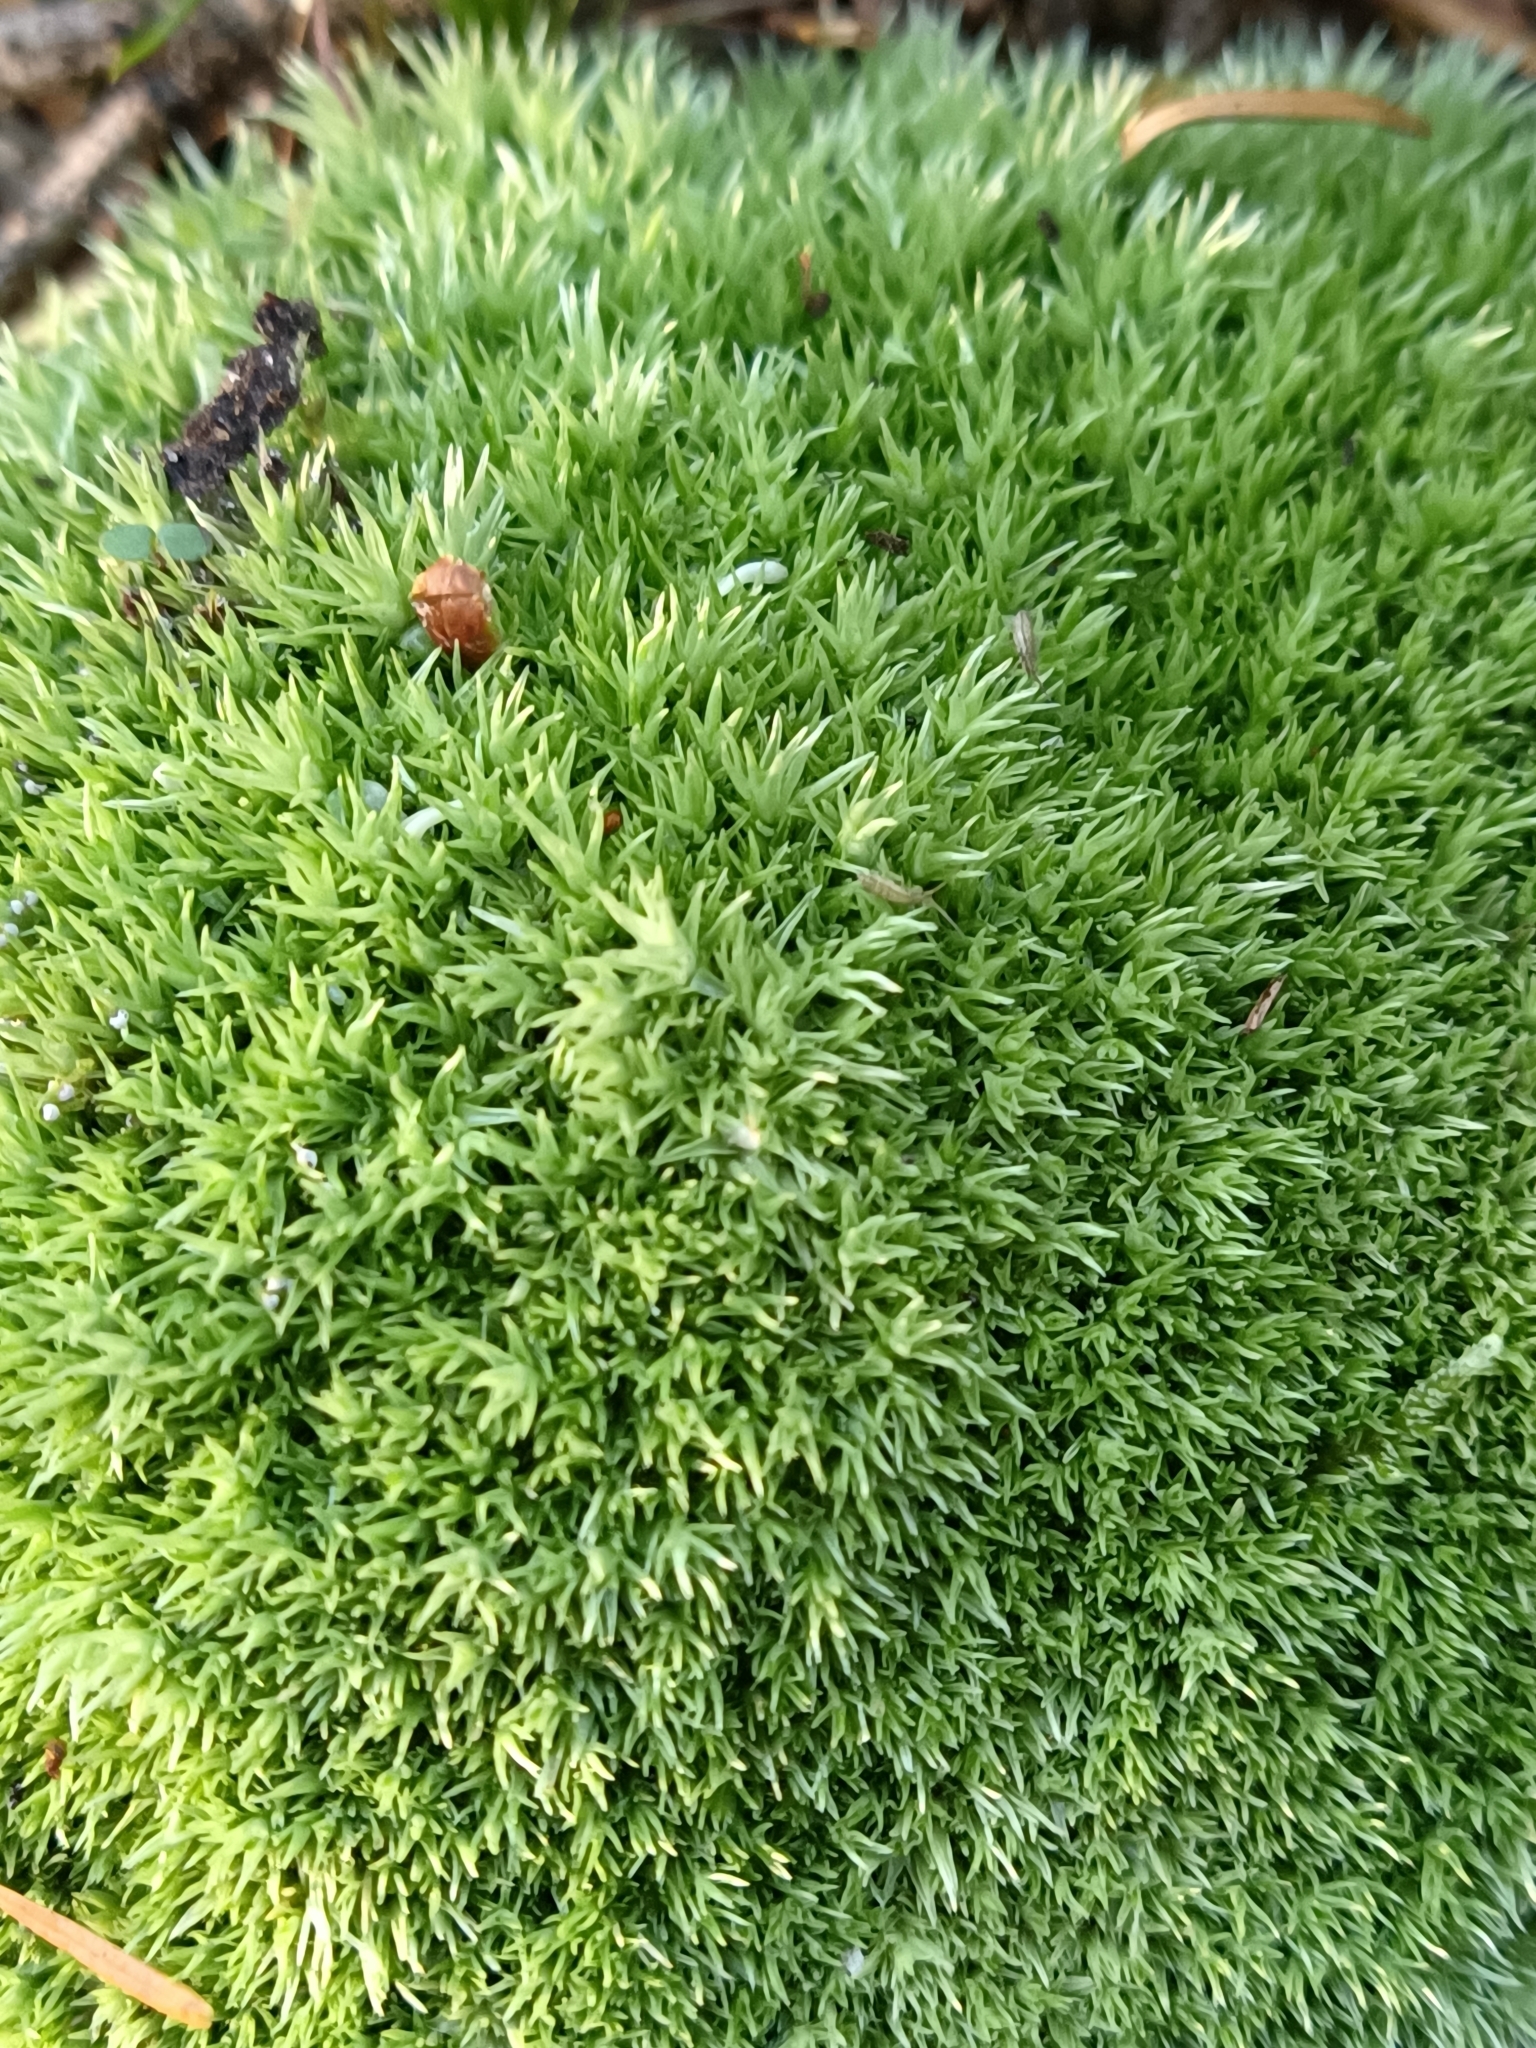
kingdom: Plantae
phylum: Bryophyta
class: Bryopsida
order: Dicranales
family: Leucobryaceae
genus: Leucobryum
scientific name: Leucobryum glaucum
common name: Large white-moss
